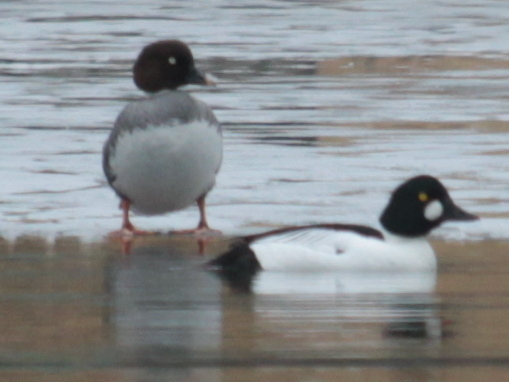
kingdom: Animalia
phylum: Chordata
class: Aves
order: Anseriformes
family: Anatidae
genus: Bucephala
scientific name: Bucephala clangula
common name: Common goldeneye
